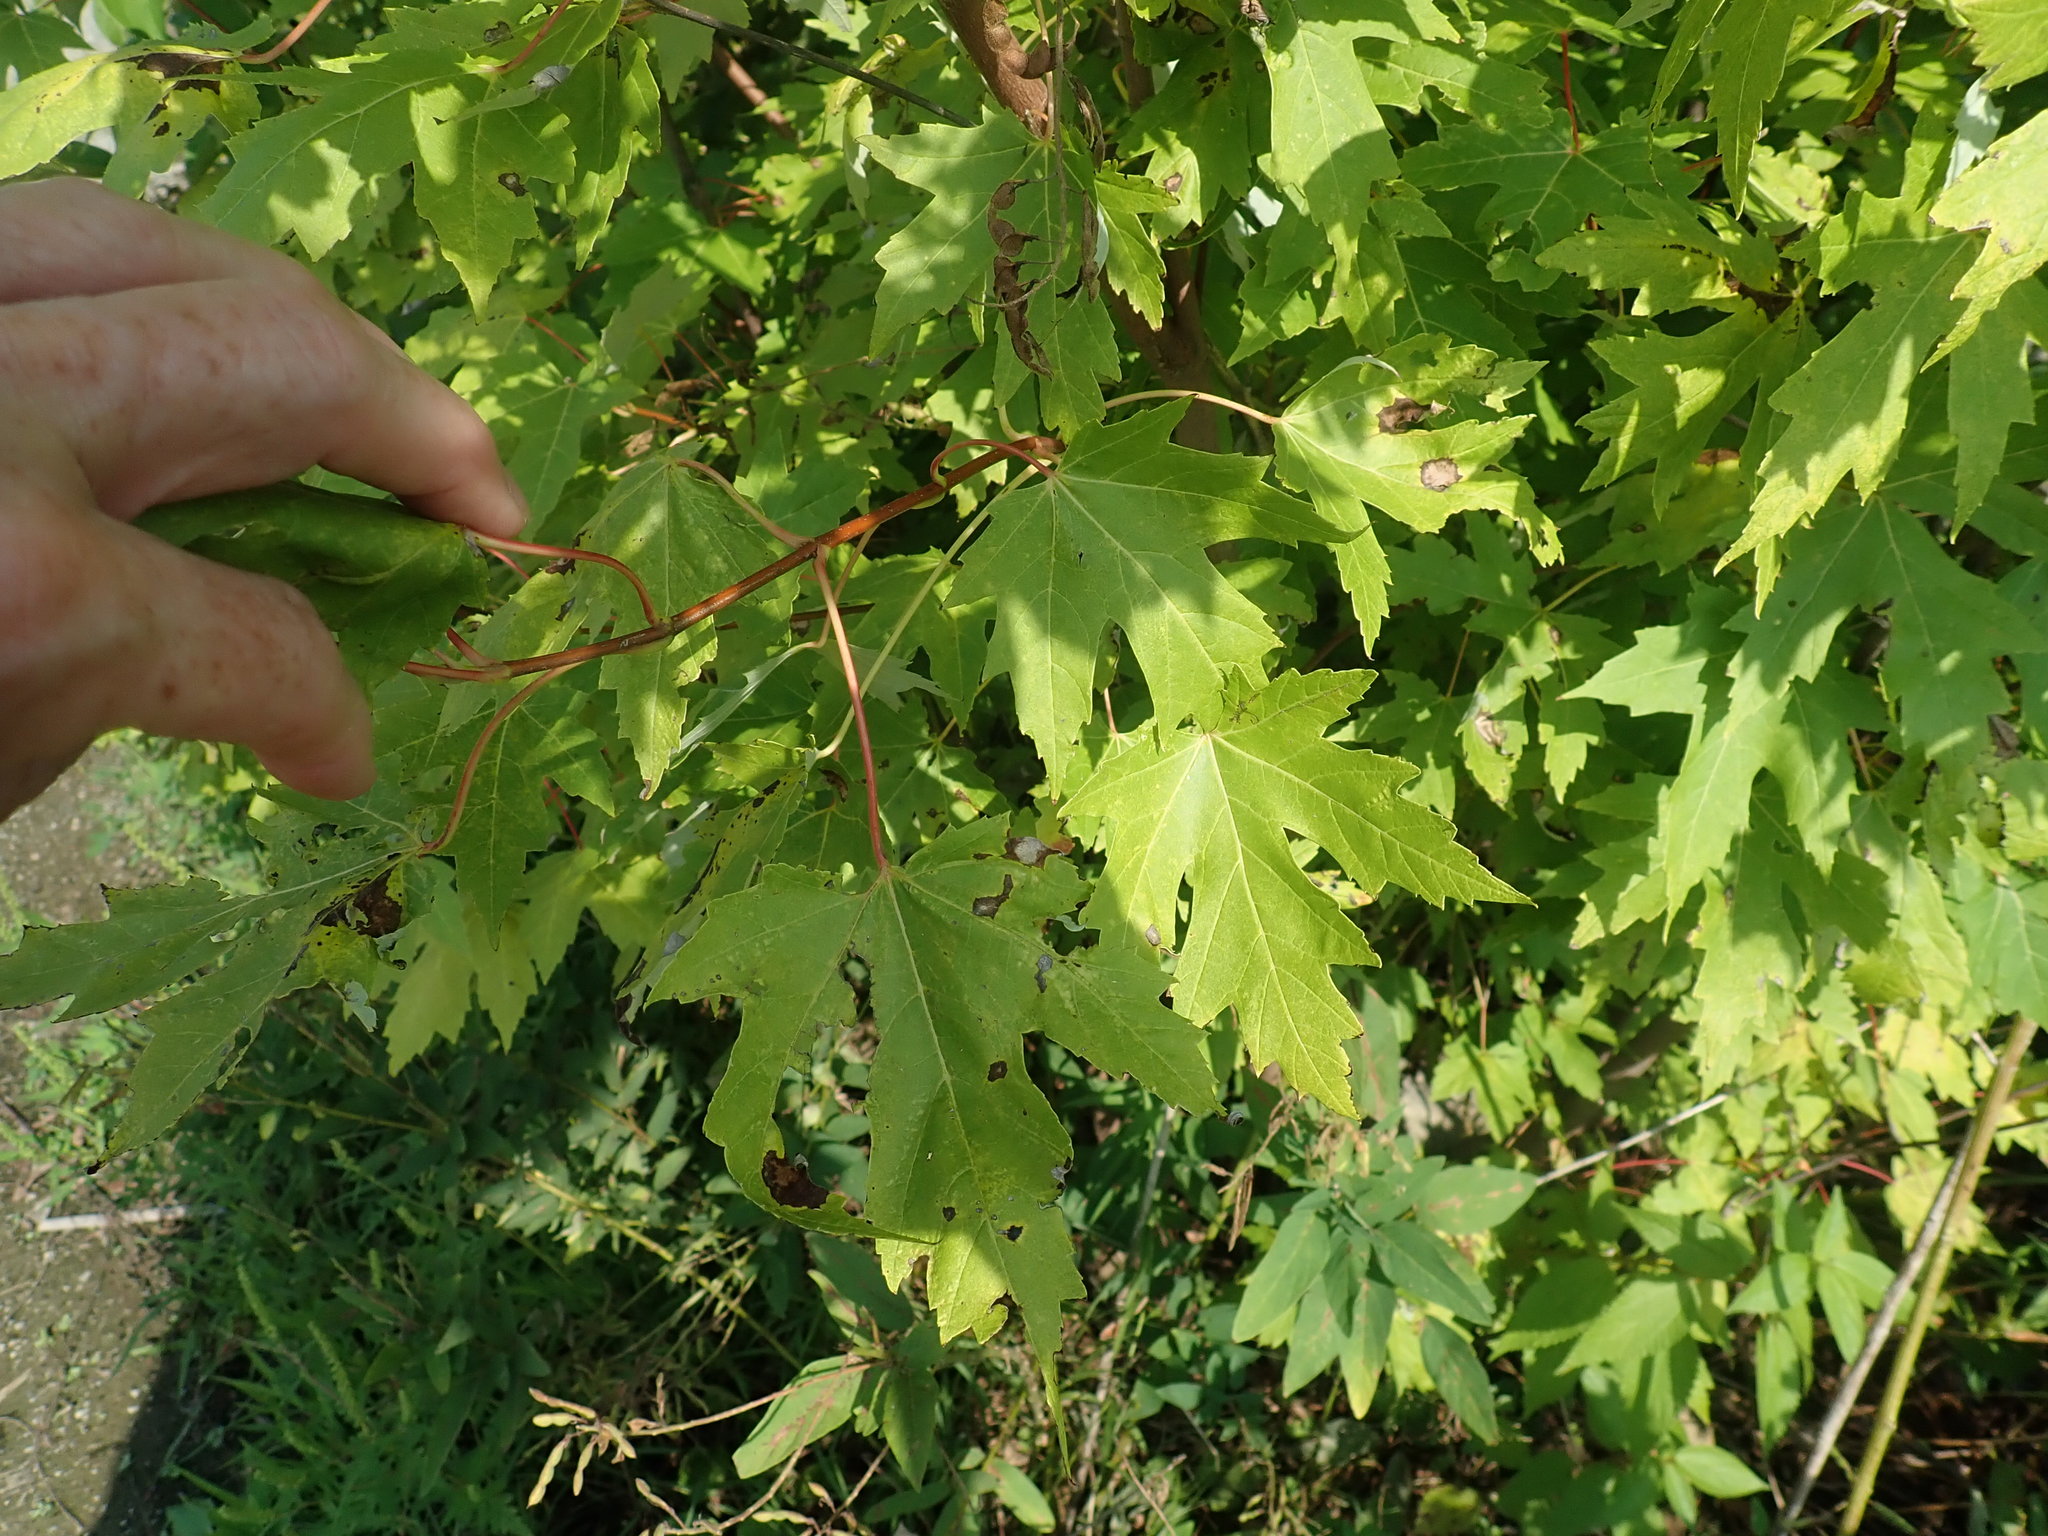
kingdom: Plantae
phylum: Tracheophyta
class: Magnoliopsida
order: Sapindales
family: Sapindaceae
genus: Acer
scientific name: Acer saccharinum
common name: Silver maple
